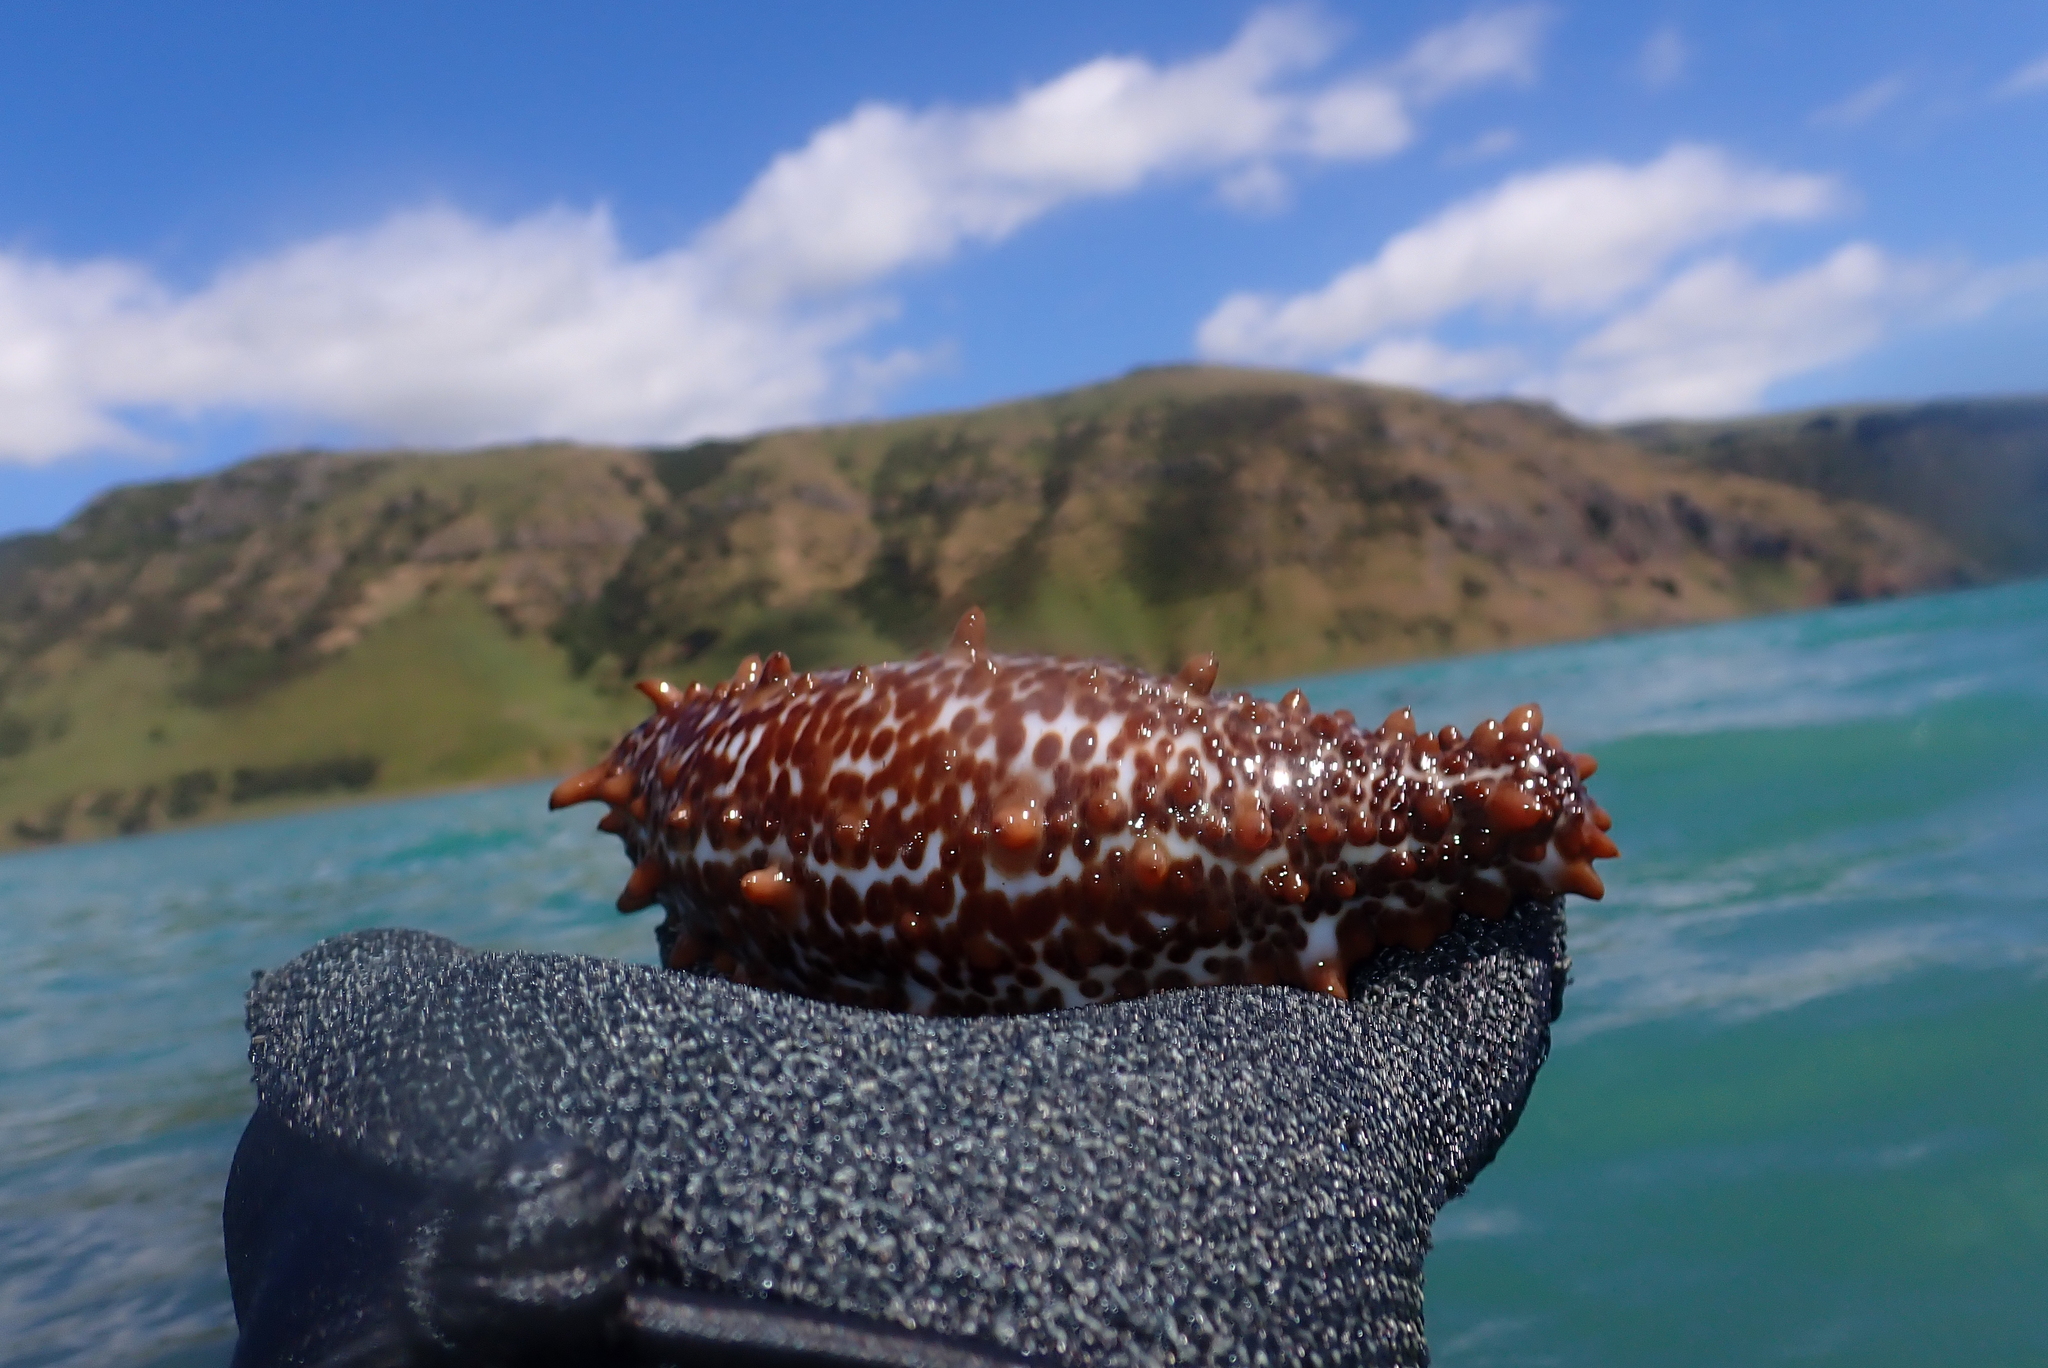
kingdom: Animalia
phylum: Echinodermata
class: Holothuroidea
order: Synallactida
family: Stichopodidae
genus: Australostichopus
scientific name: Australostichopus mollis
